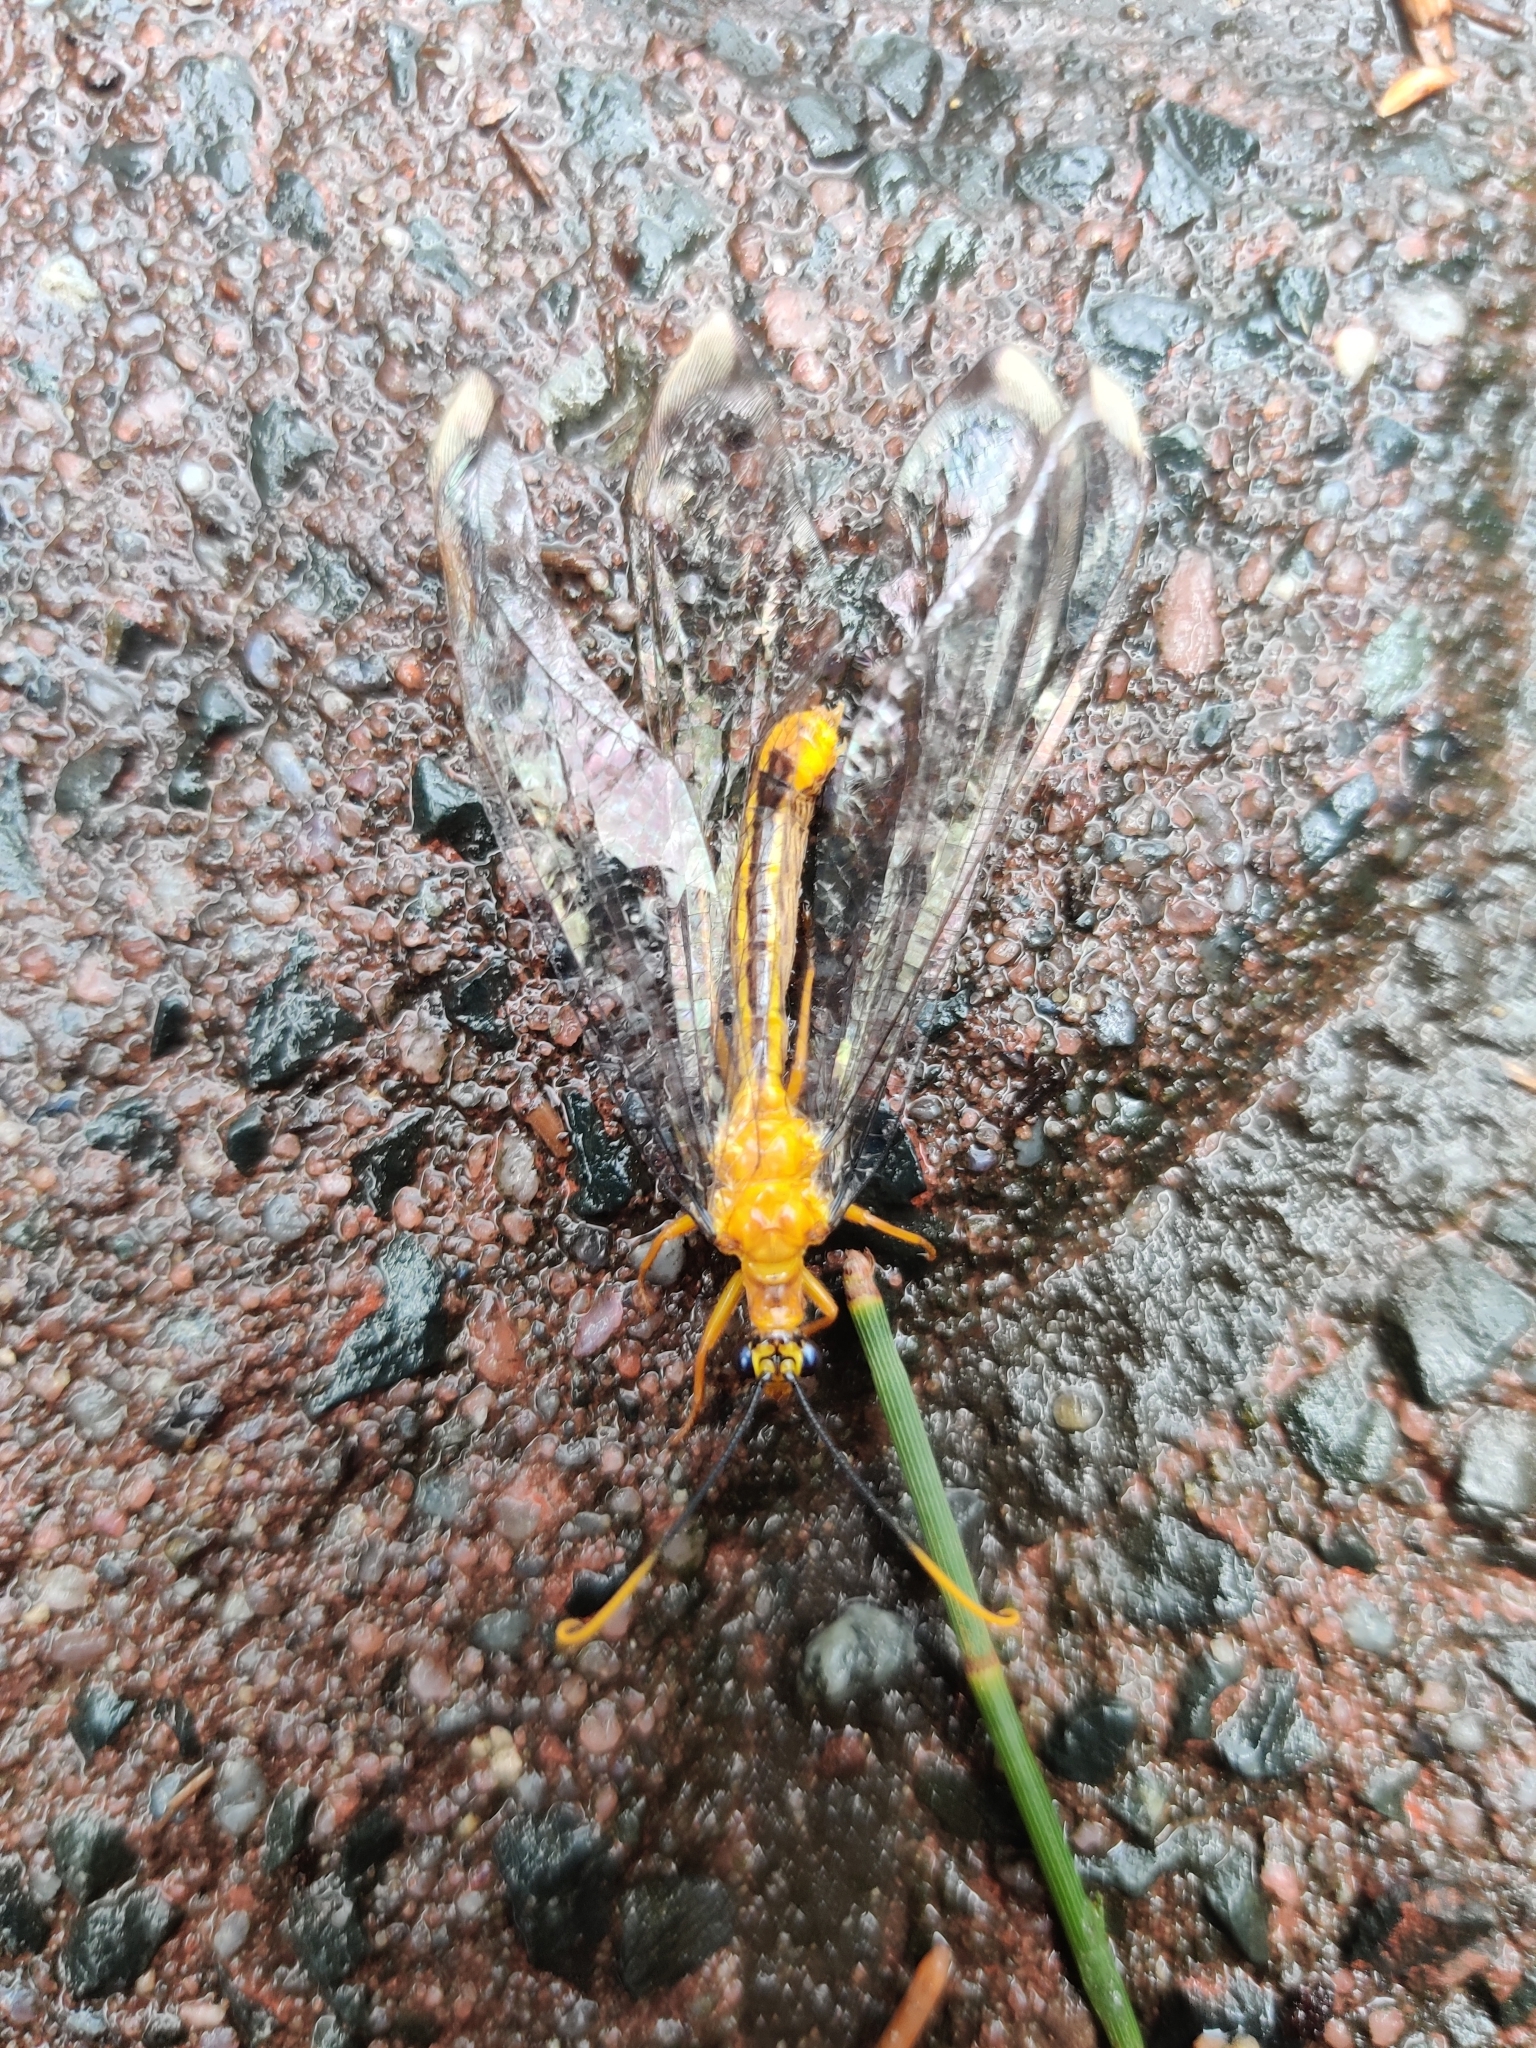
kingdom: Animalia
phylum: Arthropoda
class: Insecta
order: Neuroptera
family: Nymphidae
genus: Nymphes
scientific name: Nymphes myrmeleonoides
